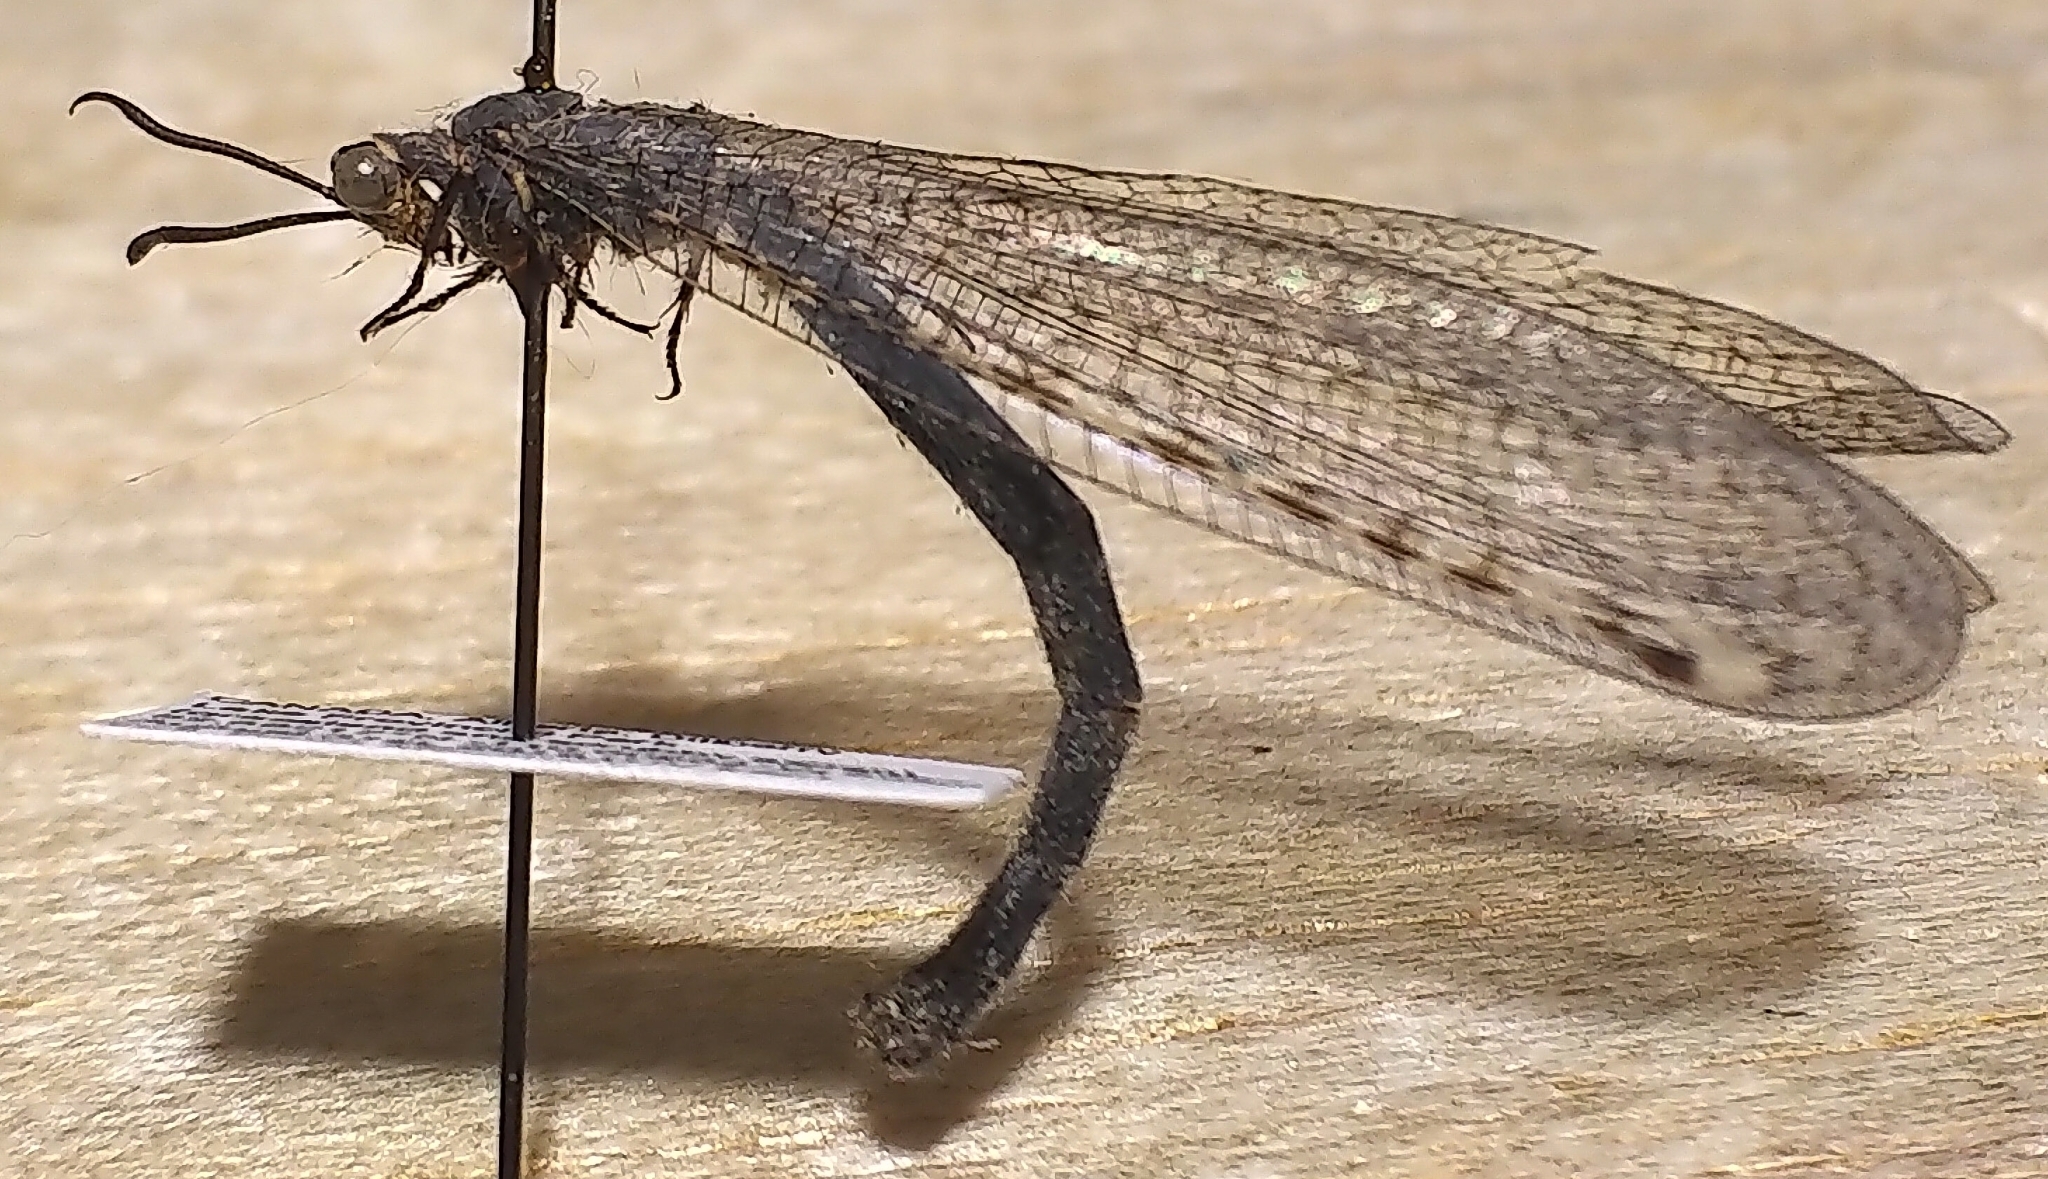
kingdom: Animalia
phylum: Arthropoda
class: Insecta
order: Neuroptera
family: Myrmeleontidae
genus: Myrmeleon
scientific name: Myrmeleon exitialis
